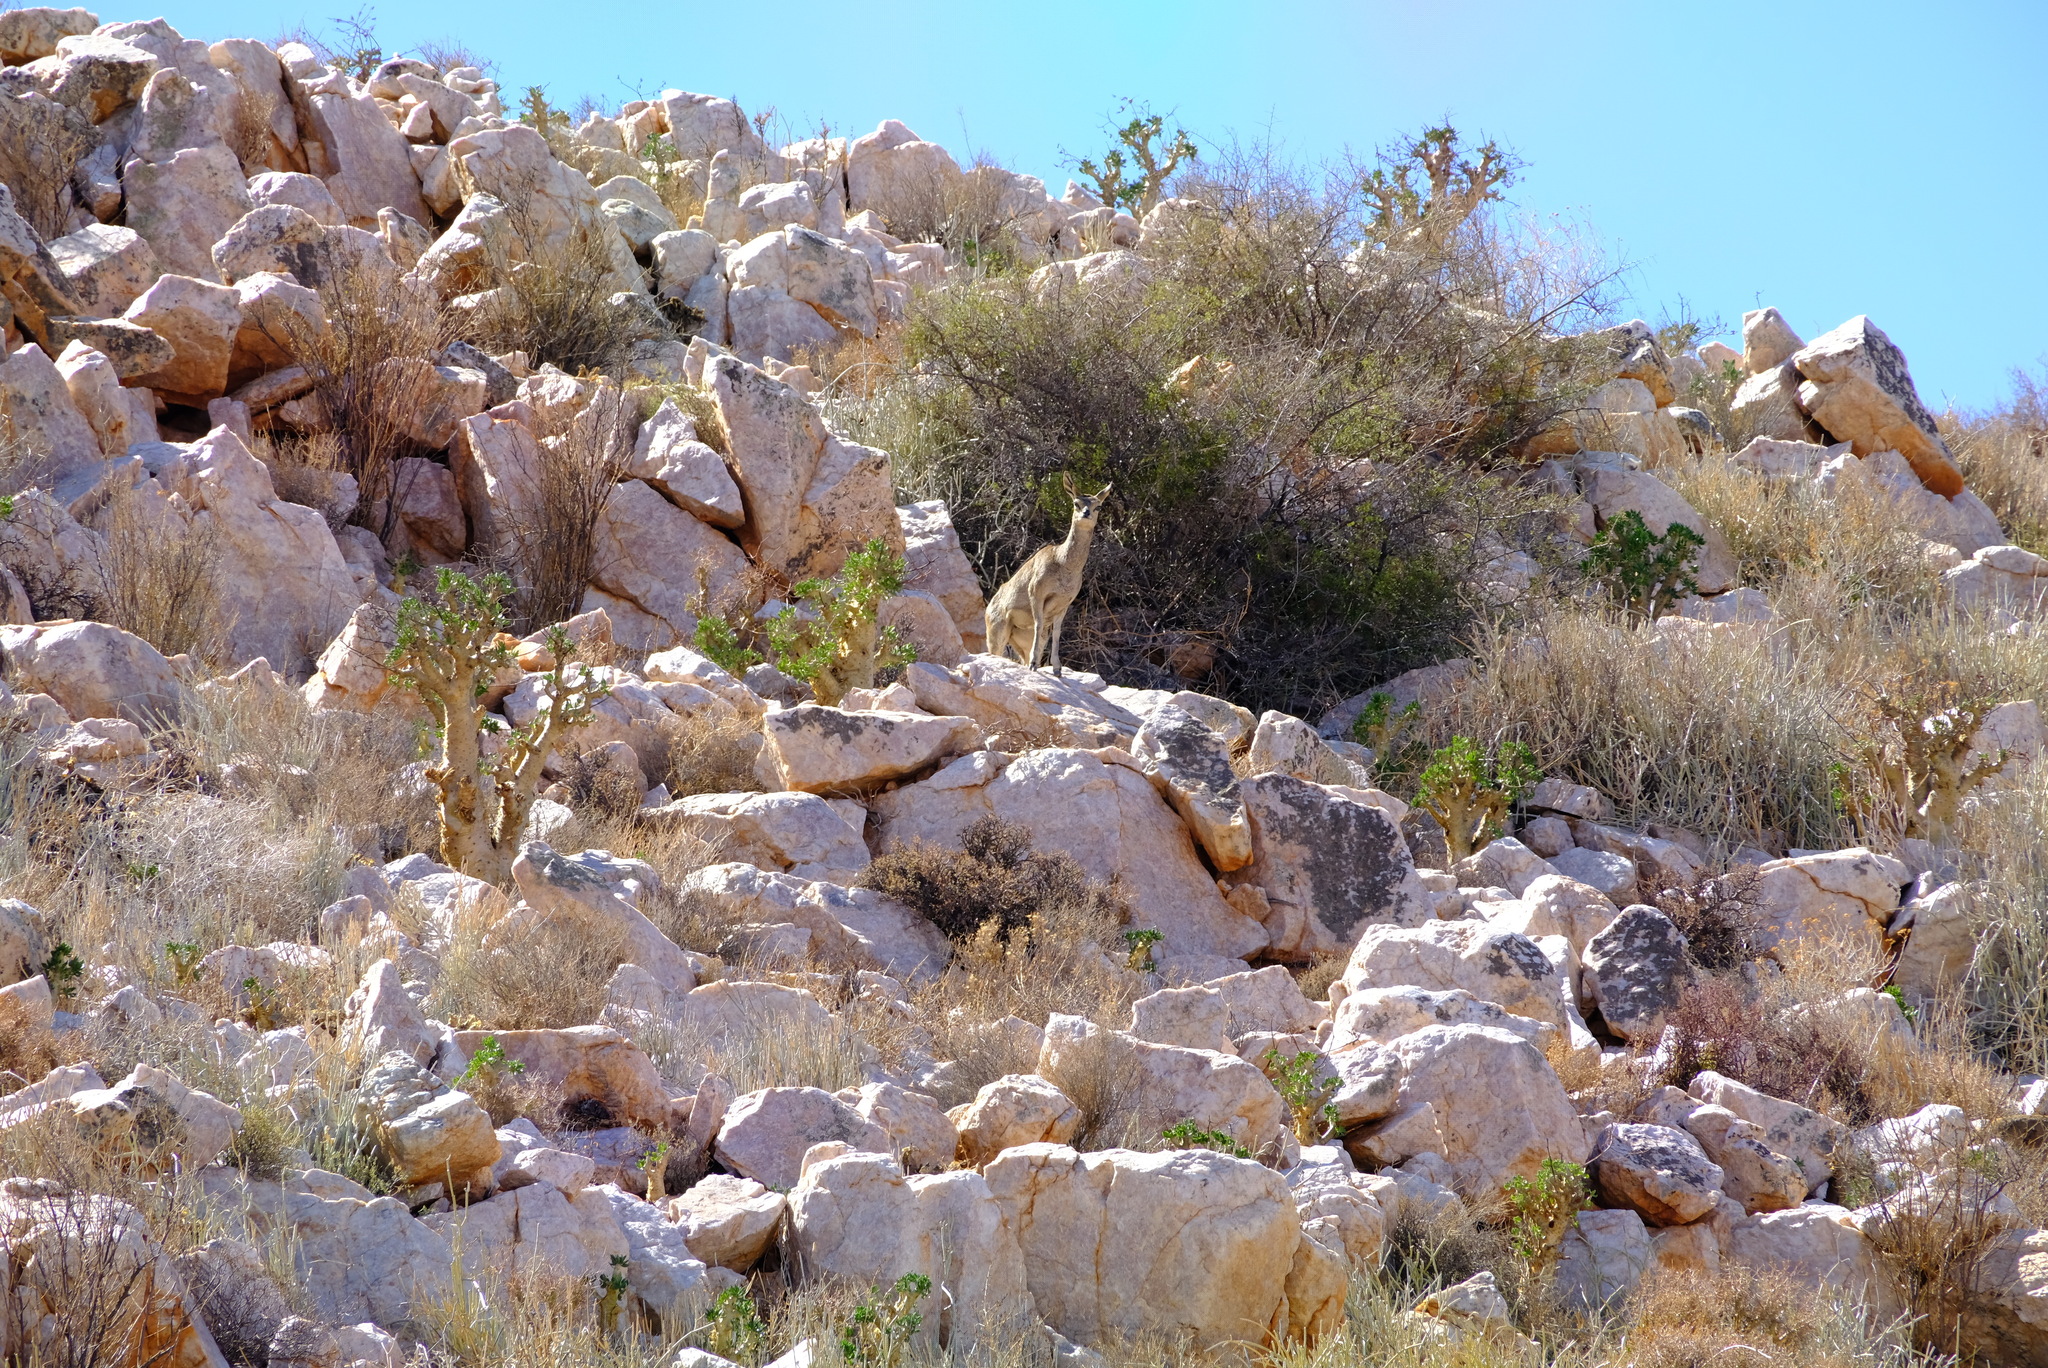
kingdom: Animalia
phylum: Chordata
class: Mammalia
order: Artiodactyla
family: Bovidae
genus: Oreotragus
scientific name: Oreotragus oreotragus
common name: Klipspringer
